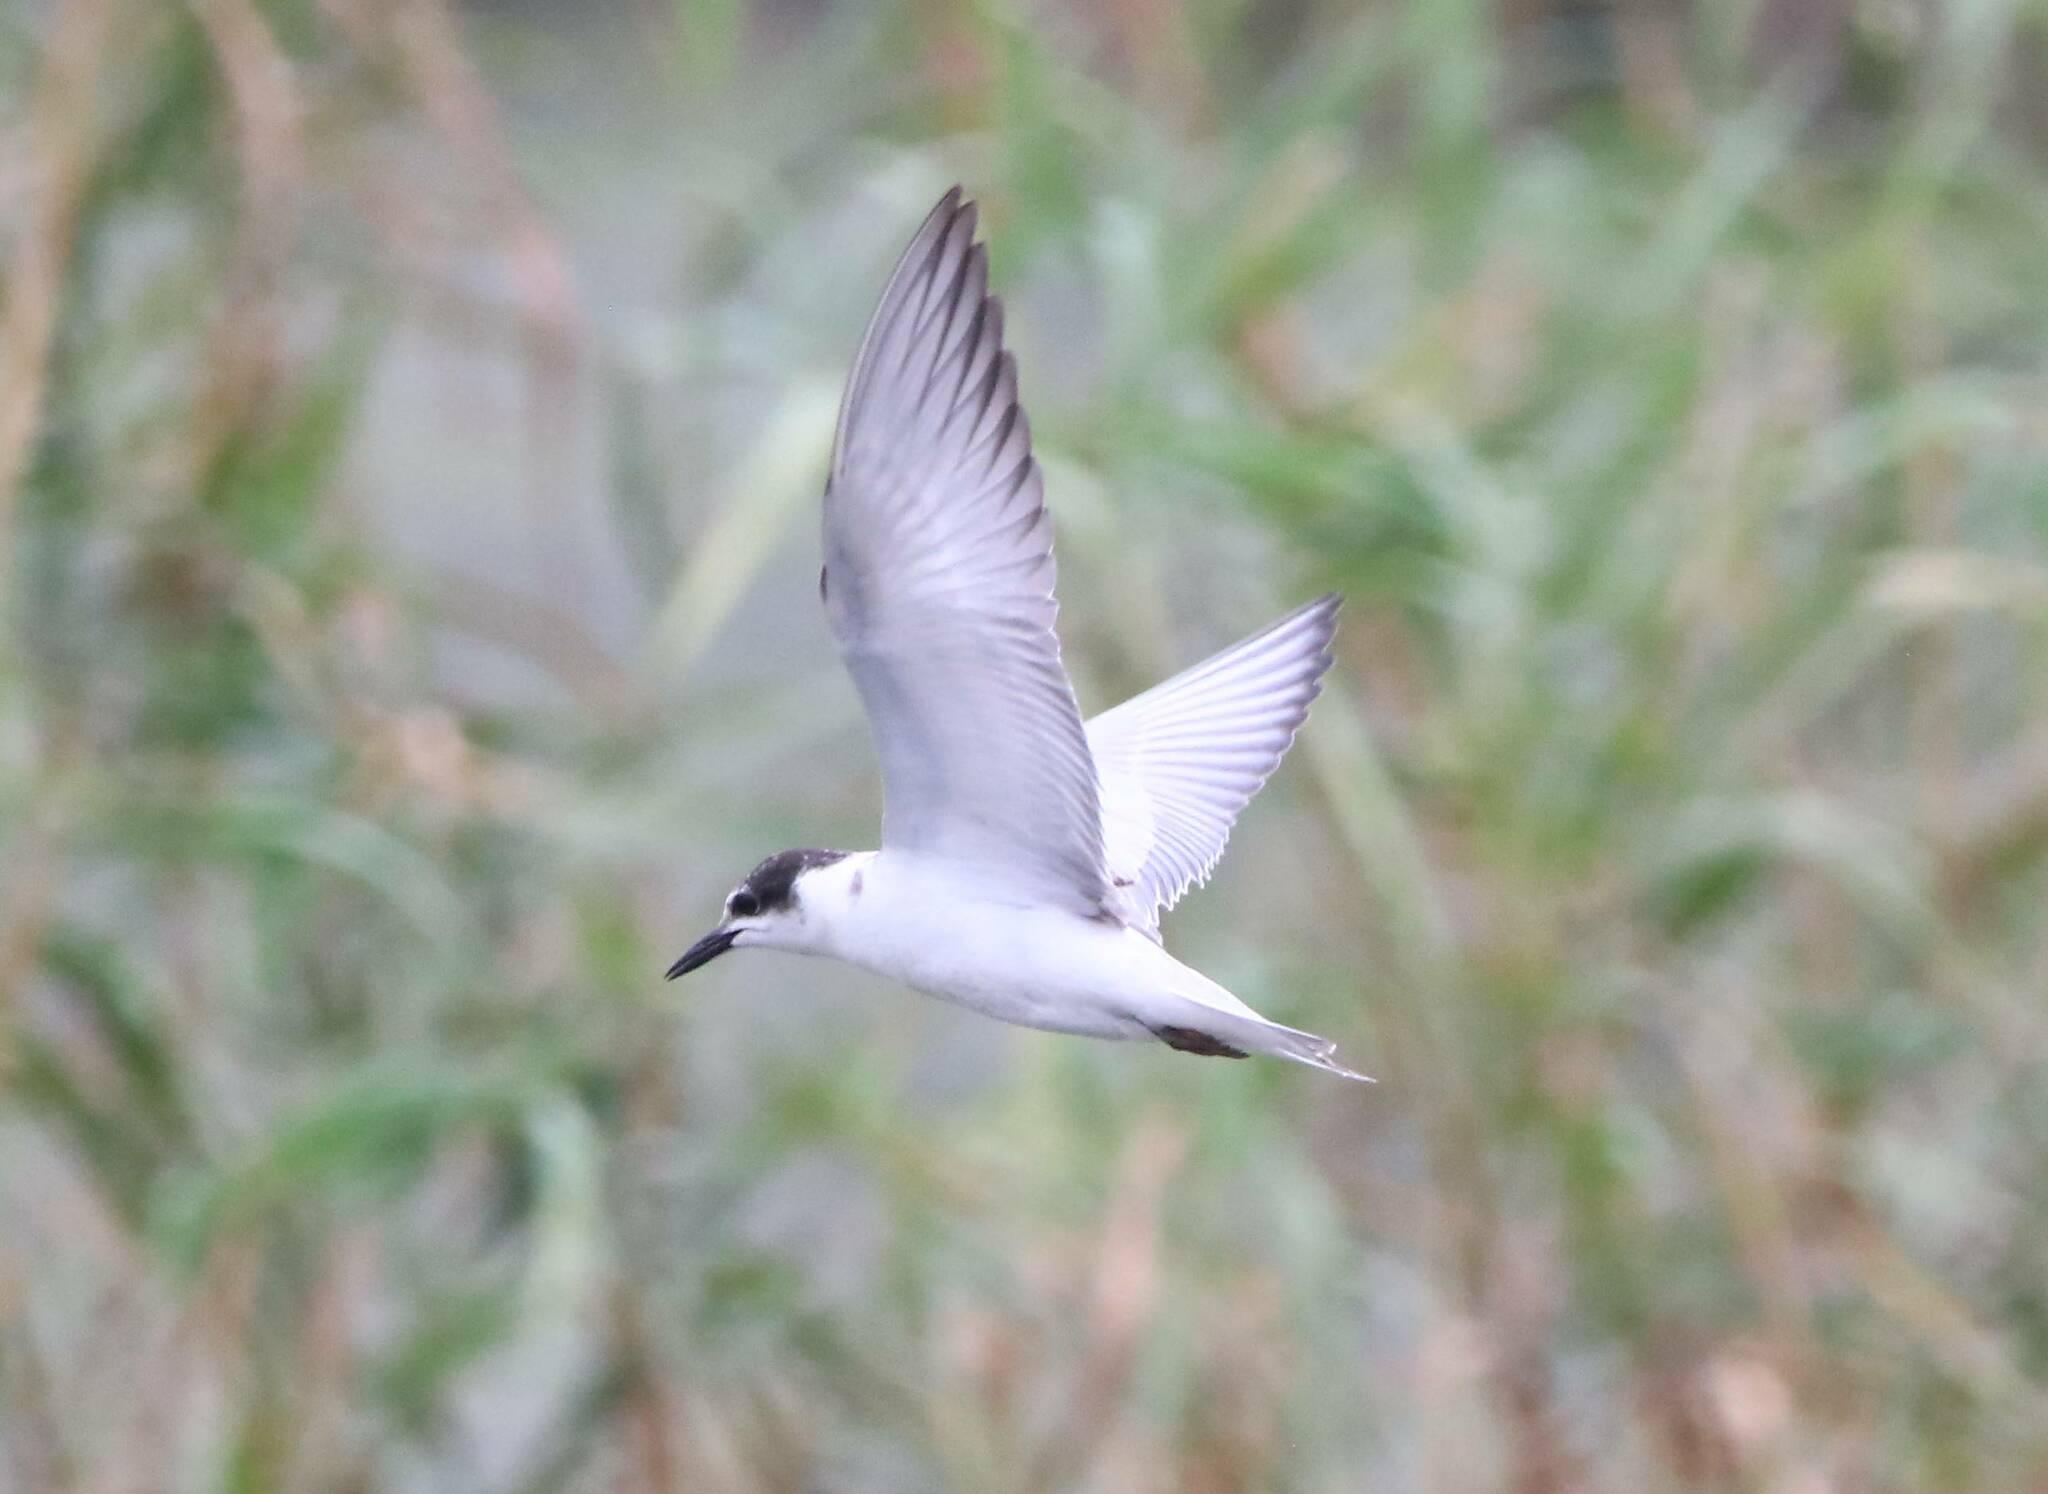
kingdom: Animalia
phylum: Chordata
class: Aves
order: Charadriiformes
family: Laridae
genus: Chlidonias
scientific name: Chlidonias hybrida
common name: Whiskered tern
